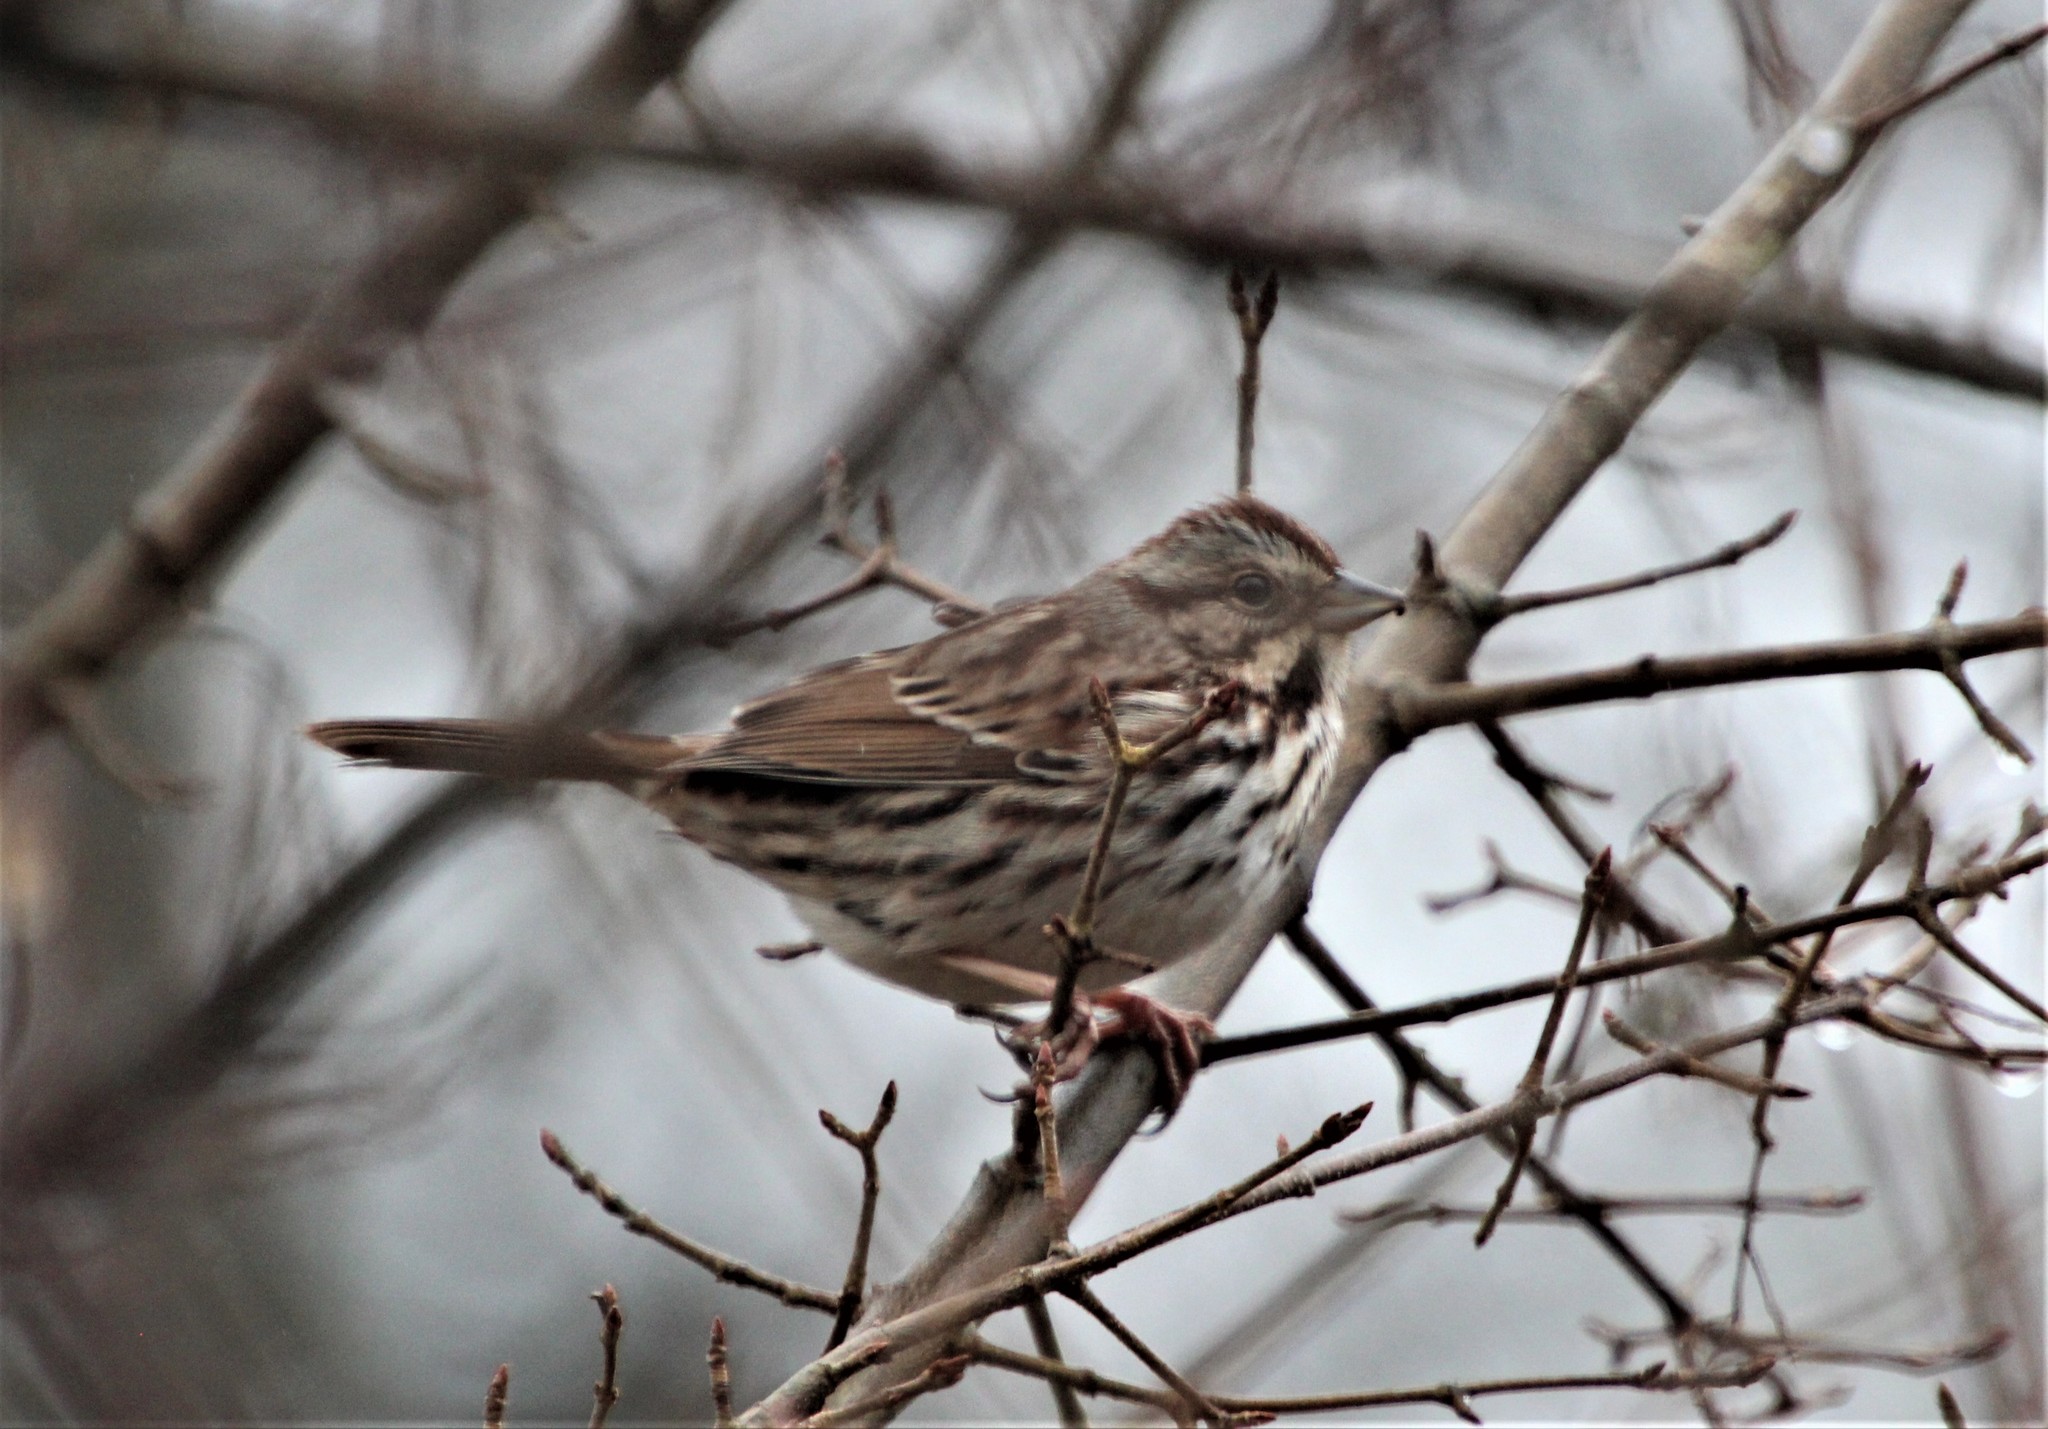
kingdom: Animalia
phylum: Chordata
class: Aves
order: Passeriformes
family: Passerellidae
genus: Melospiza
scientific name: Melospiza melodia
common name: Song sparrow
